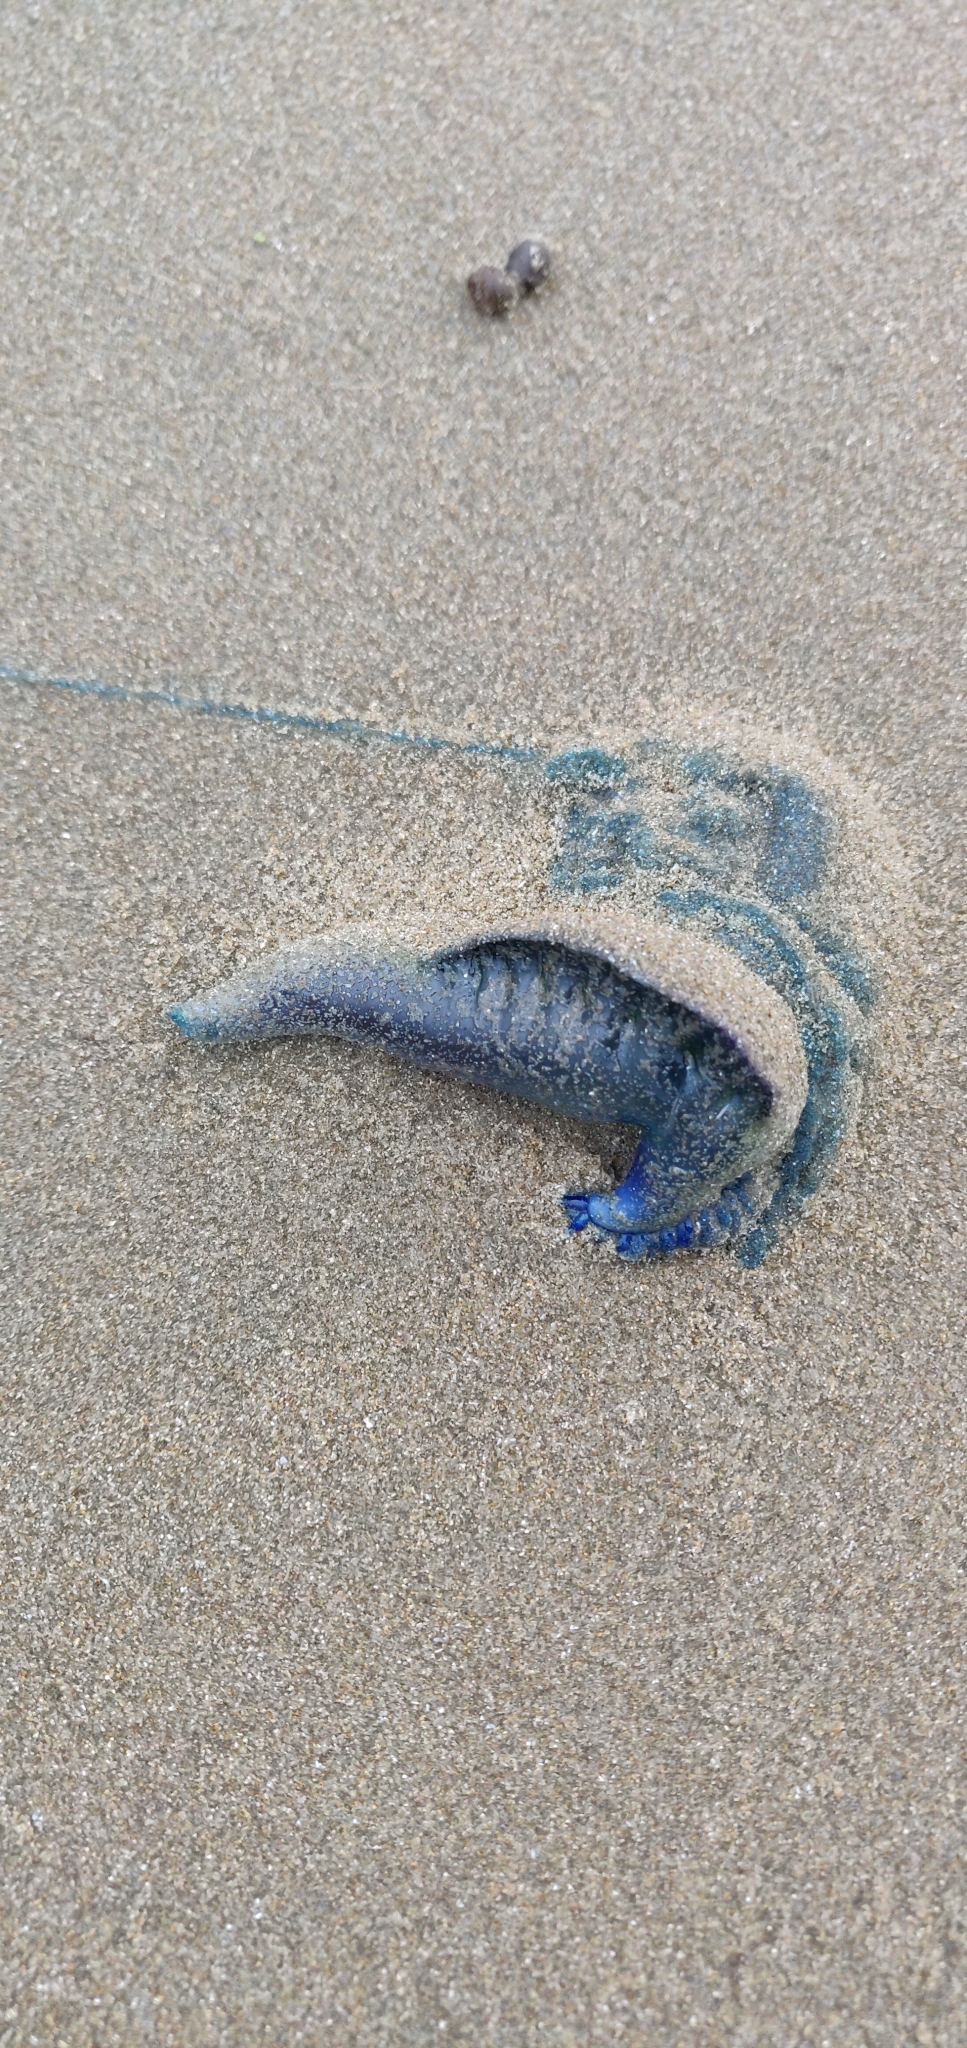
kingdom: Animalia
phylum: Cnidaria
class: Hydrozoa
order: Siphonophorae
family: Physaliidae
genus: Physalia
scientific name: Physalia physalis
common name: Portuguese man-of-war
